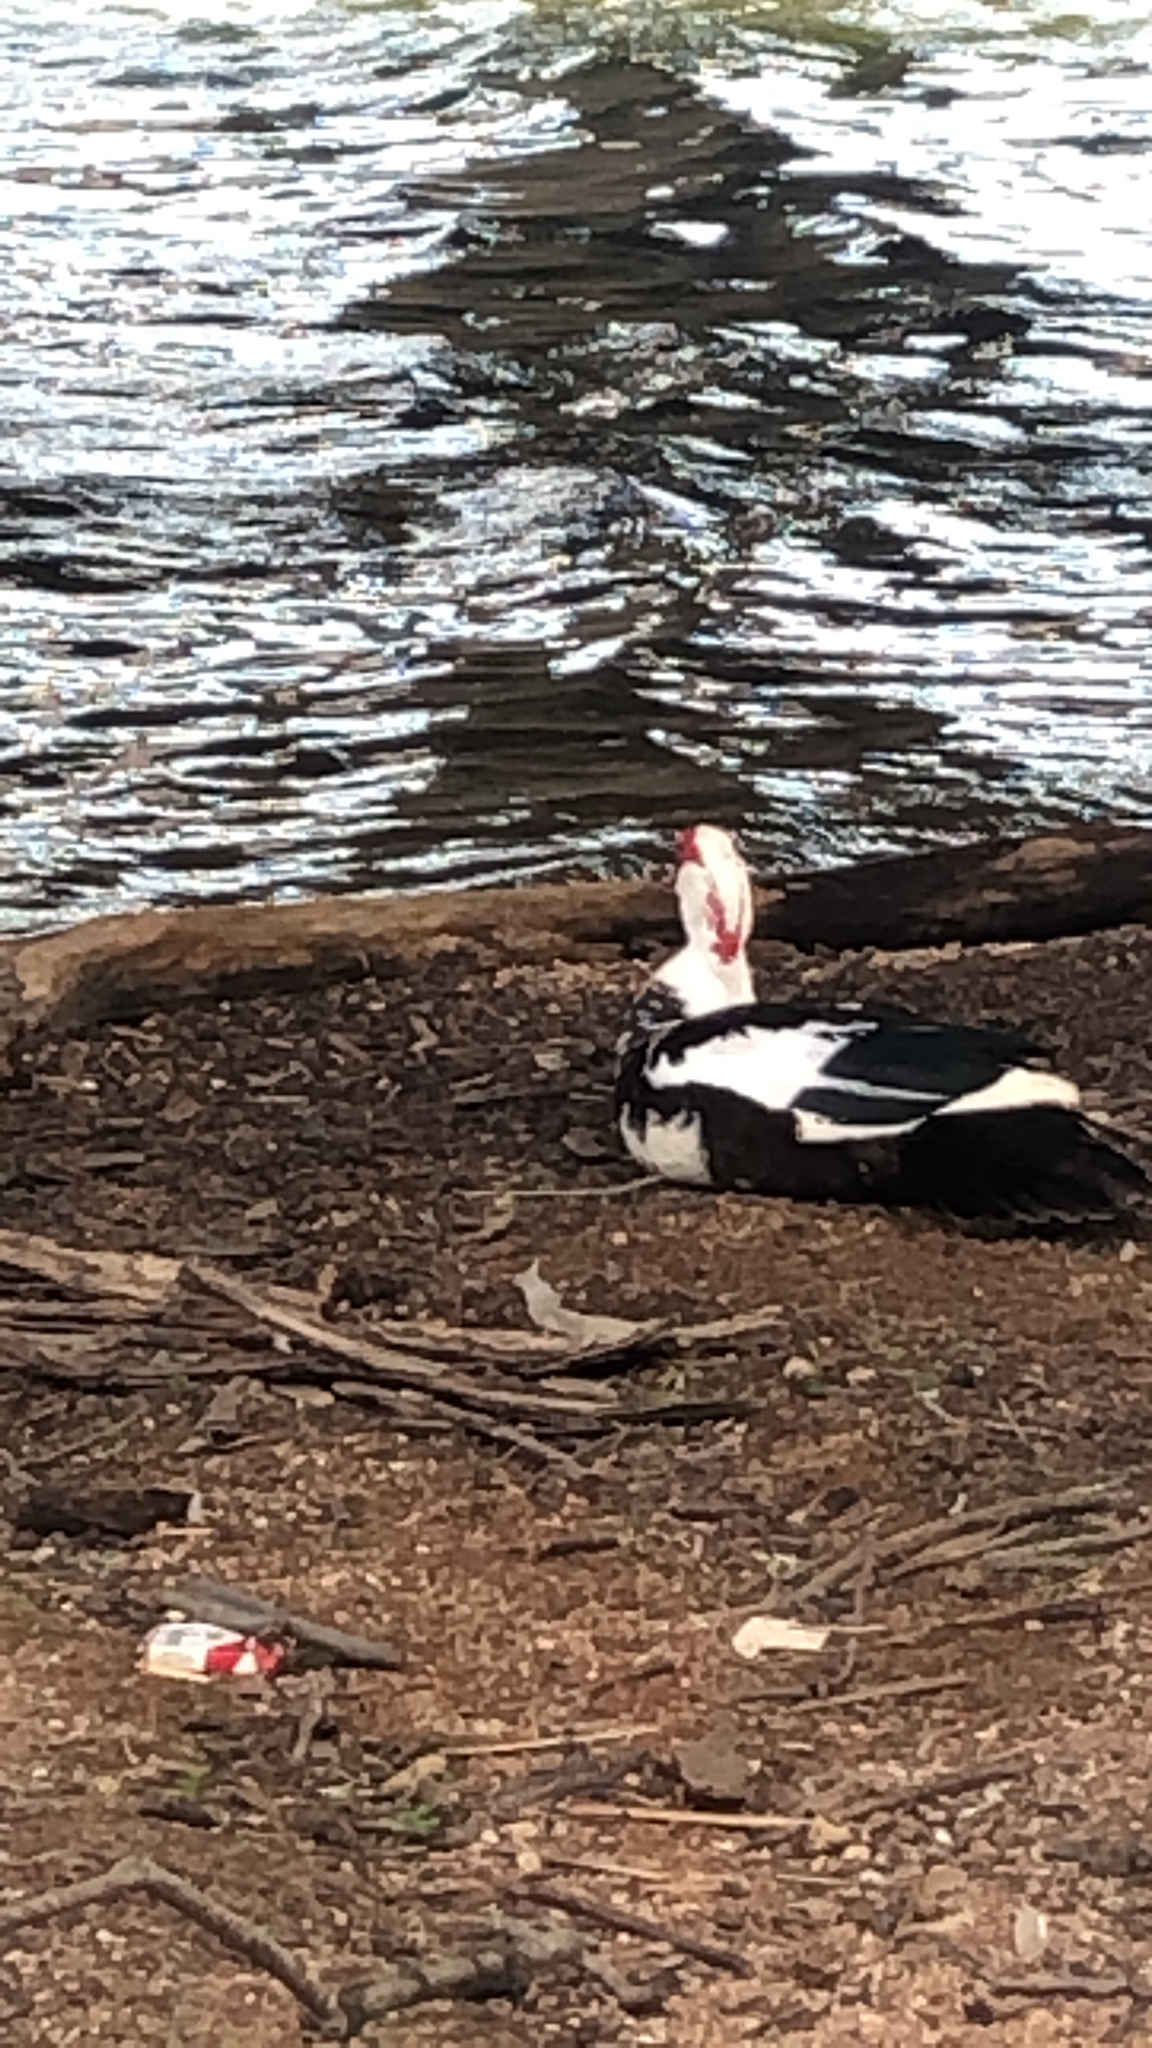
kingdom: Animalia
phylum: Chordata
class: Aves
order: Anseriformes
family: Anatidae
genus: Cairina
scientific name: Cairina moschata
